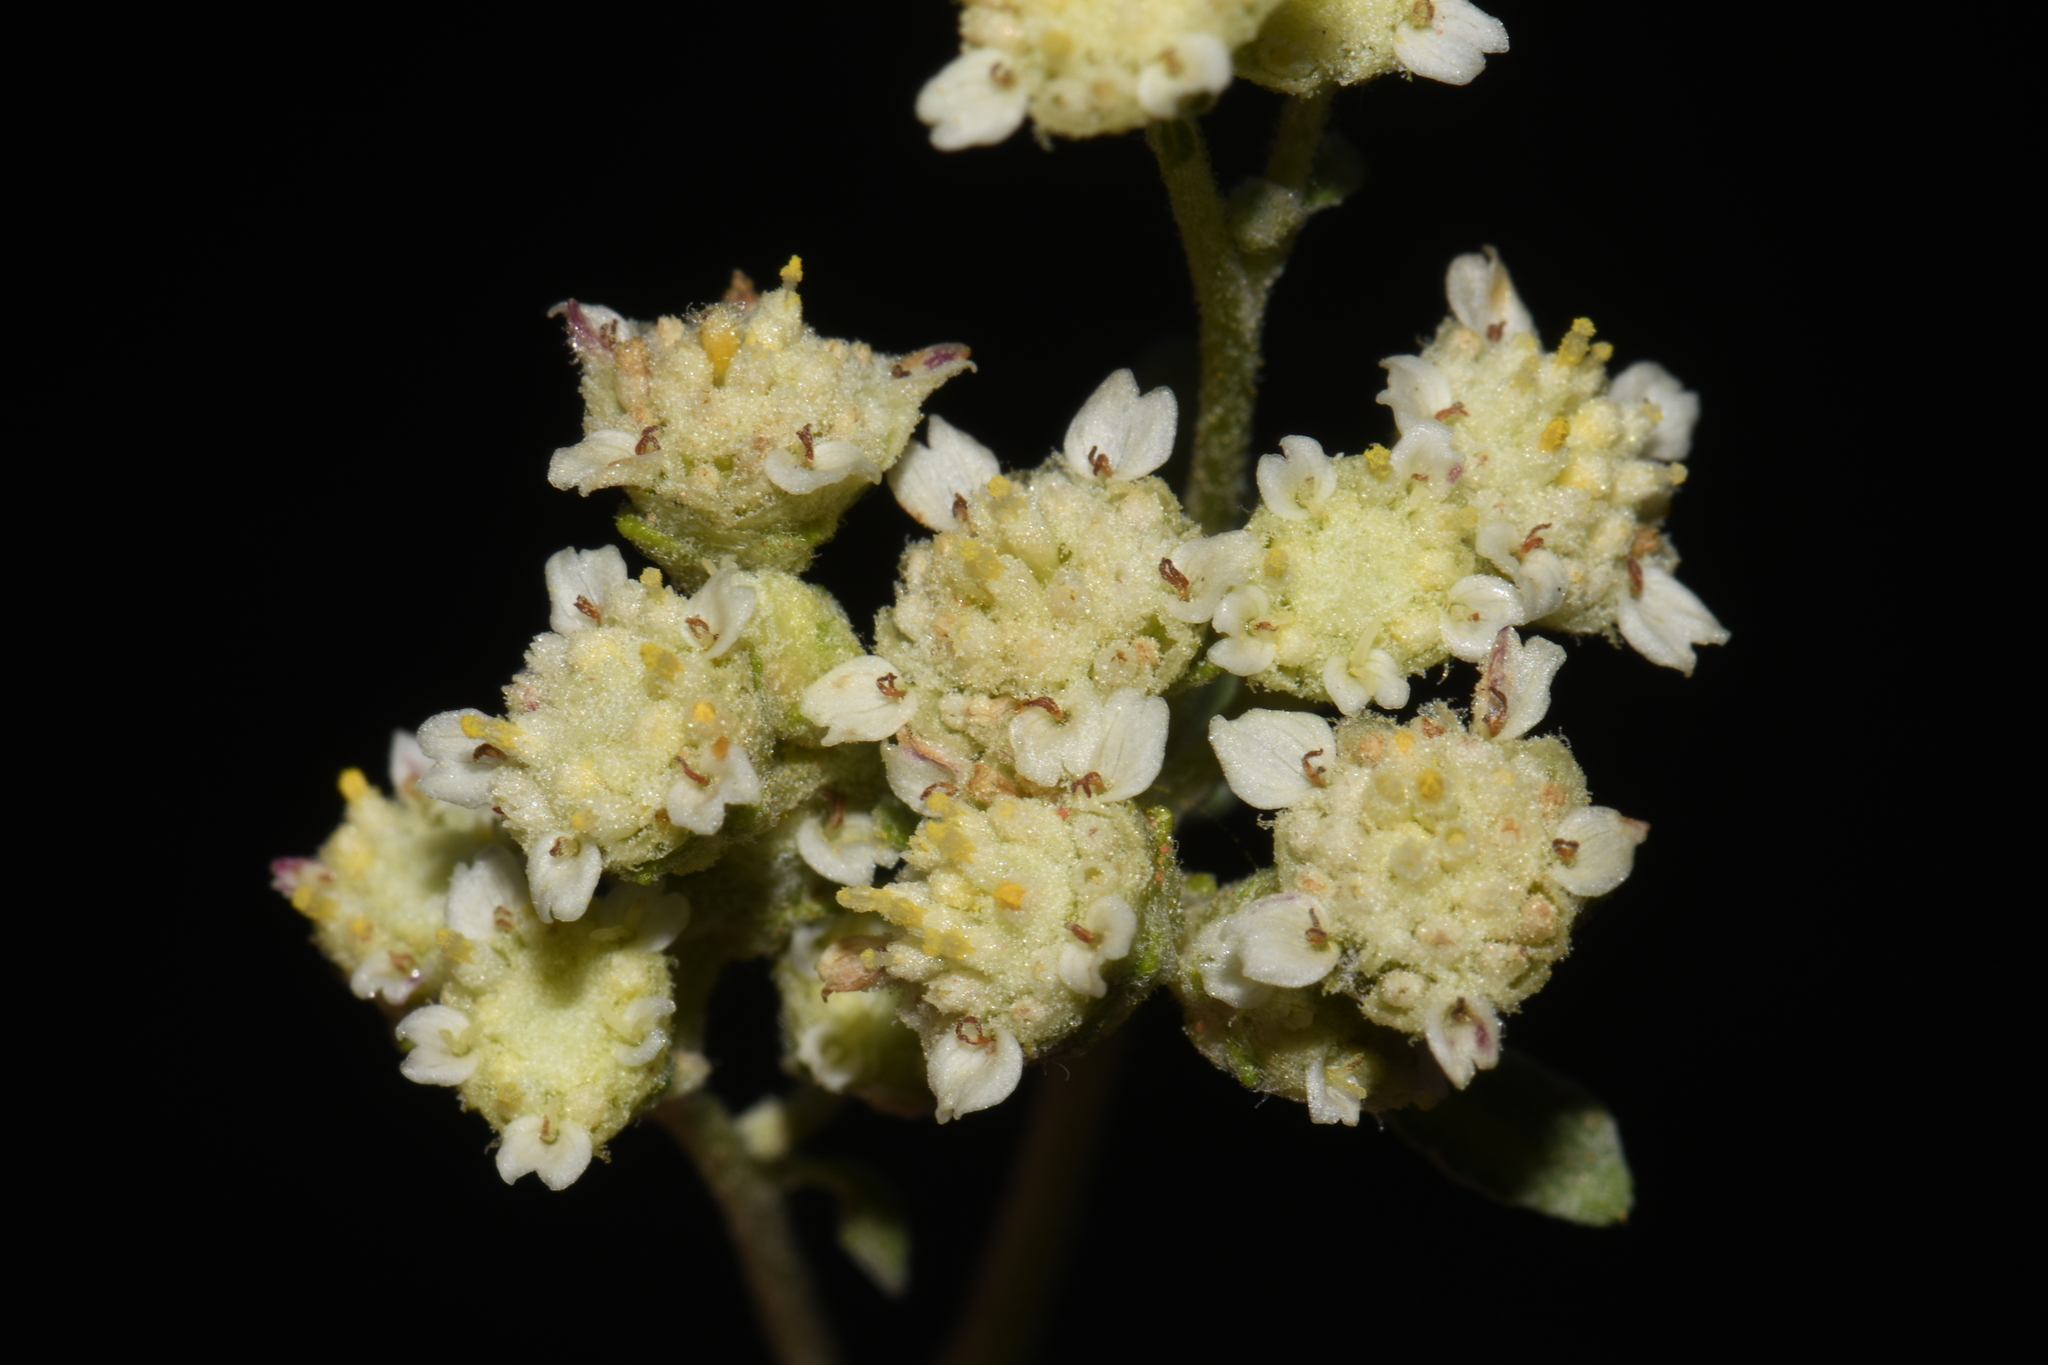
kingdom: Plantae
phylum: Tracheophyta
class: Magnoliopsida
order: Asterales
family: Asteraceae
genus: Parthenium
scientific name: Parthenium incanum
